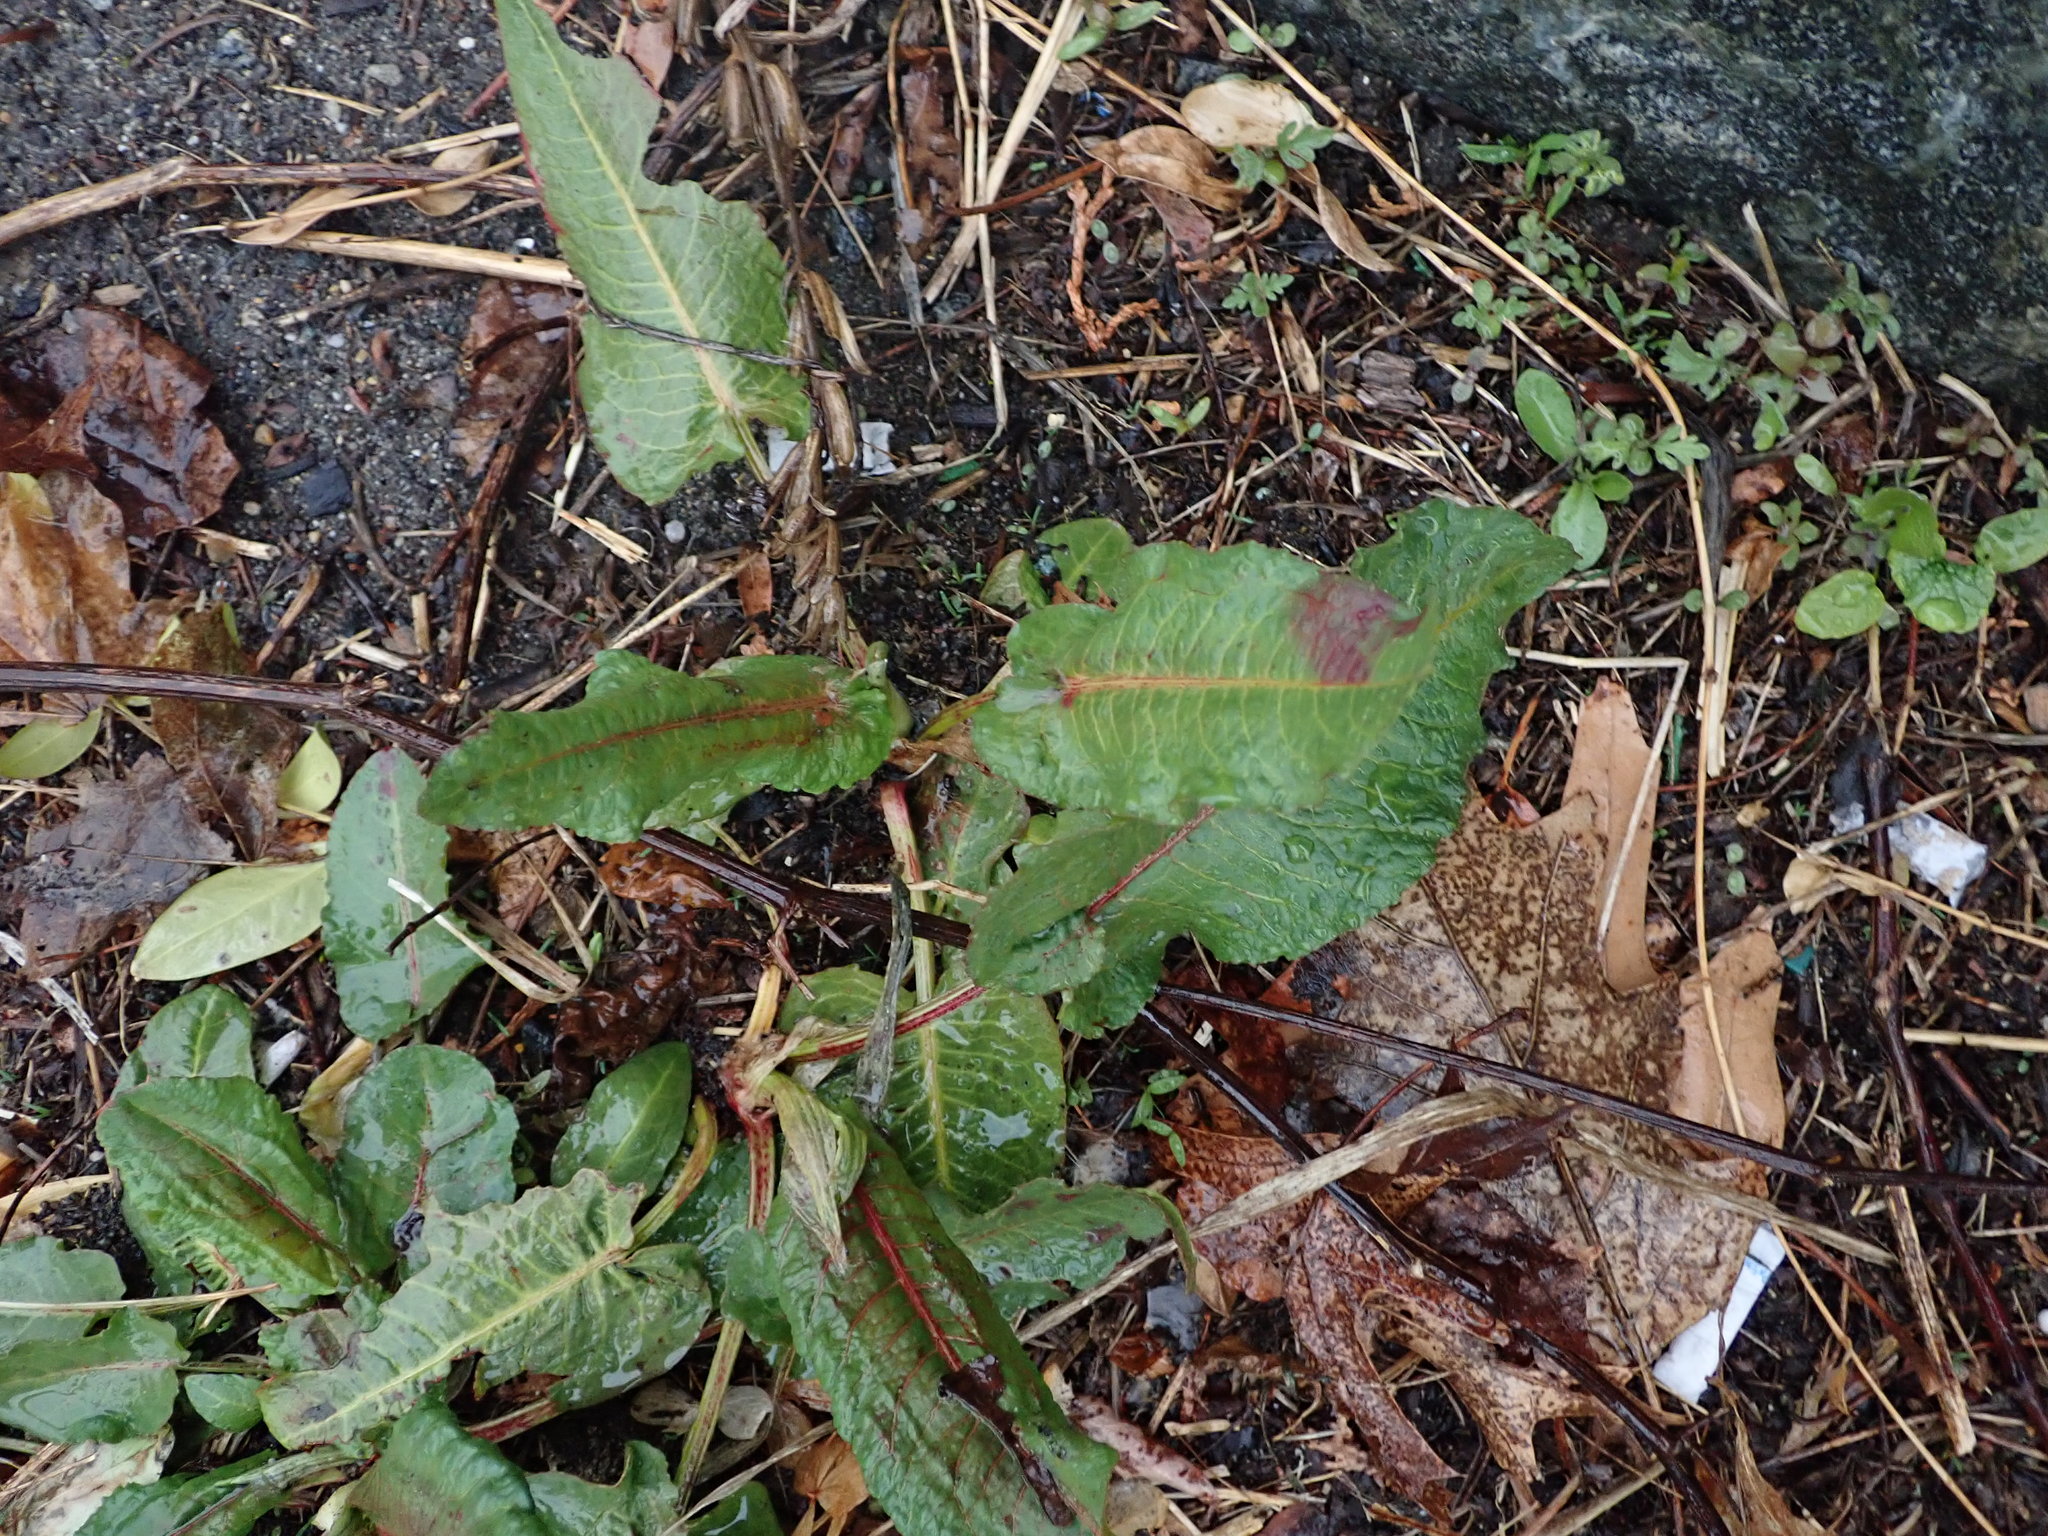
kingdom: Plantae
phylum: Tracheophyta
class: Magnoliopsida
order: Caryophyllales
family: Polygonaceae
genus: Rumex
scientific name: Rumex obtusifolius
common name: Bitter dock
